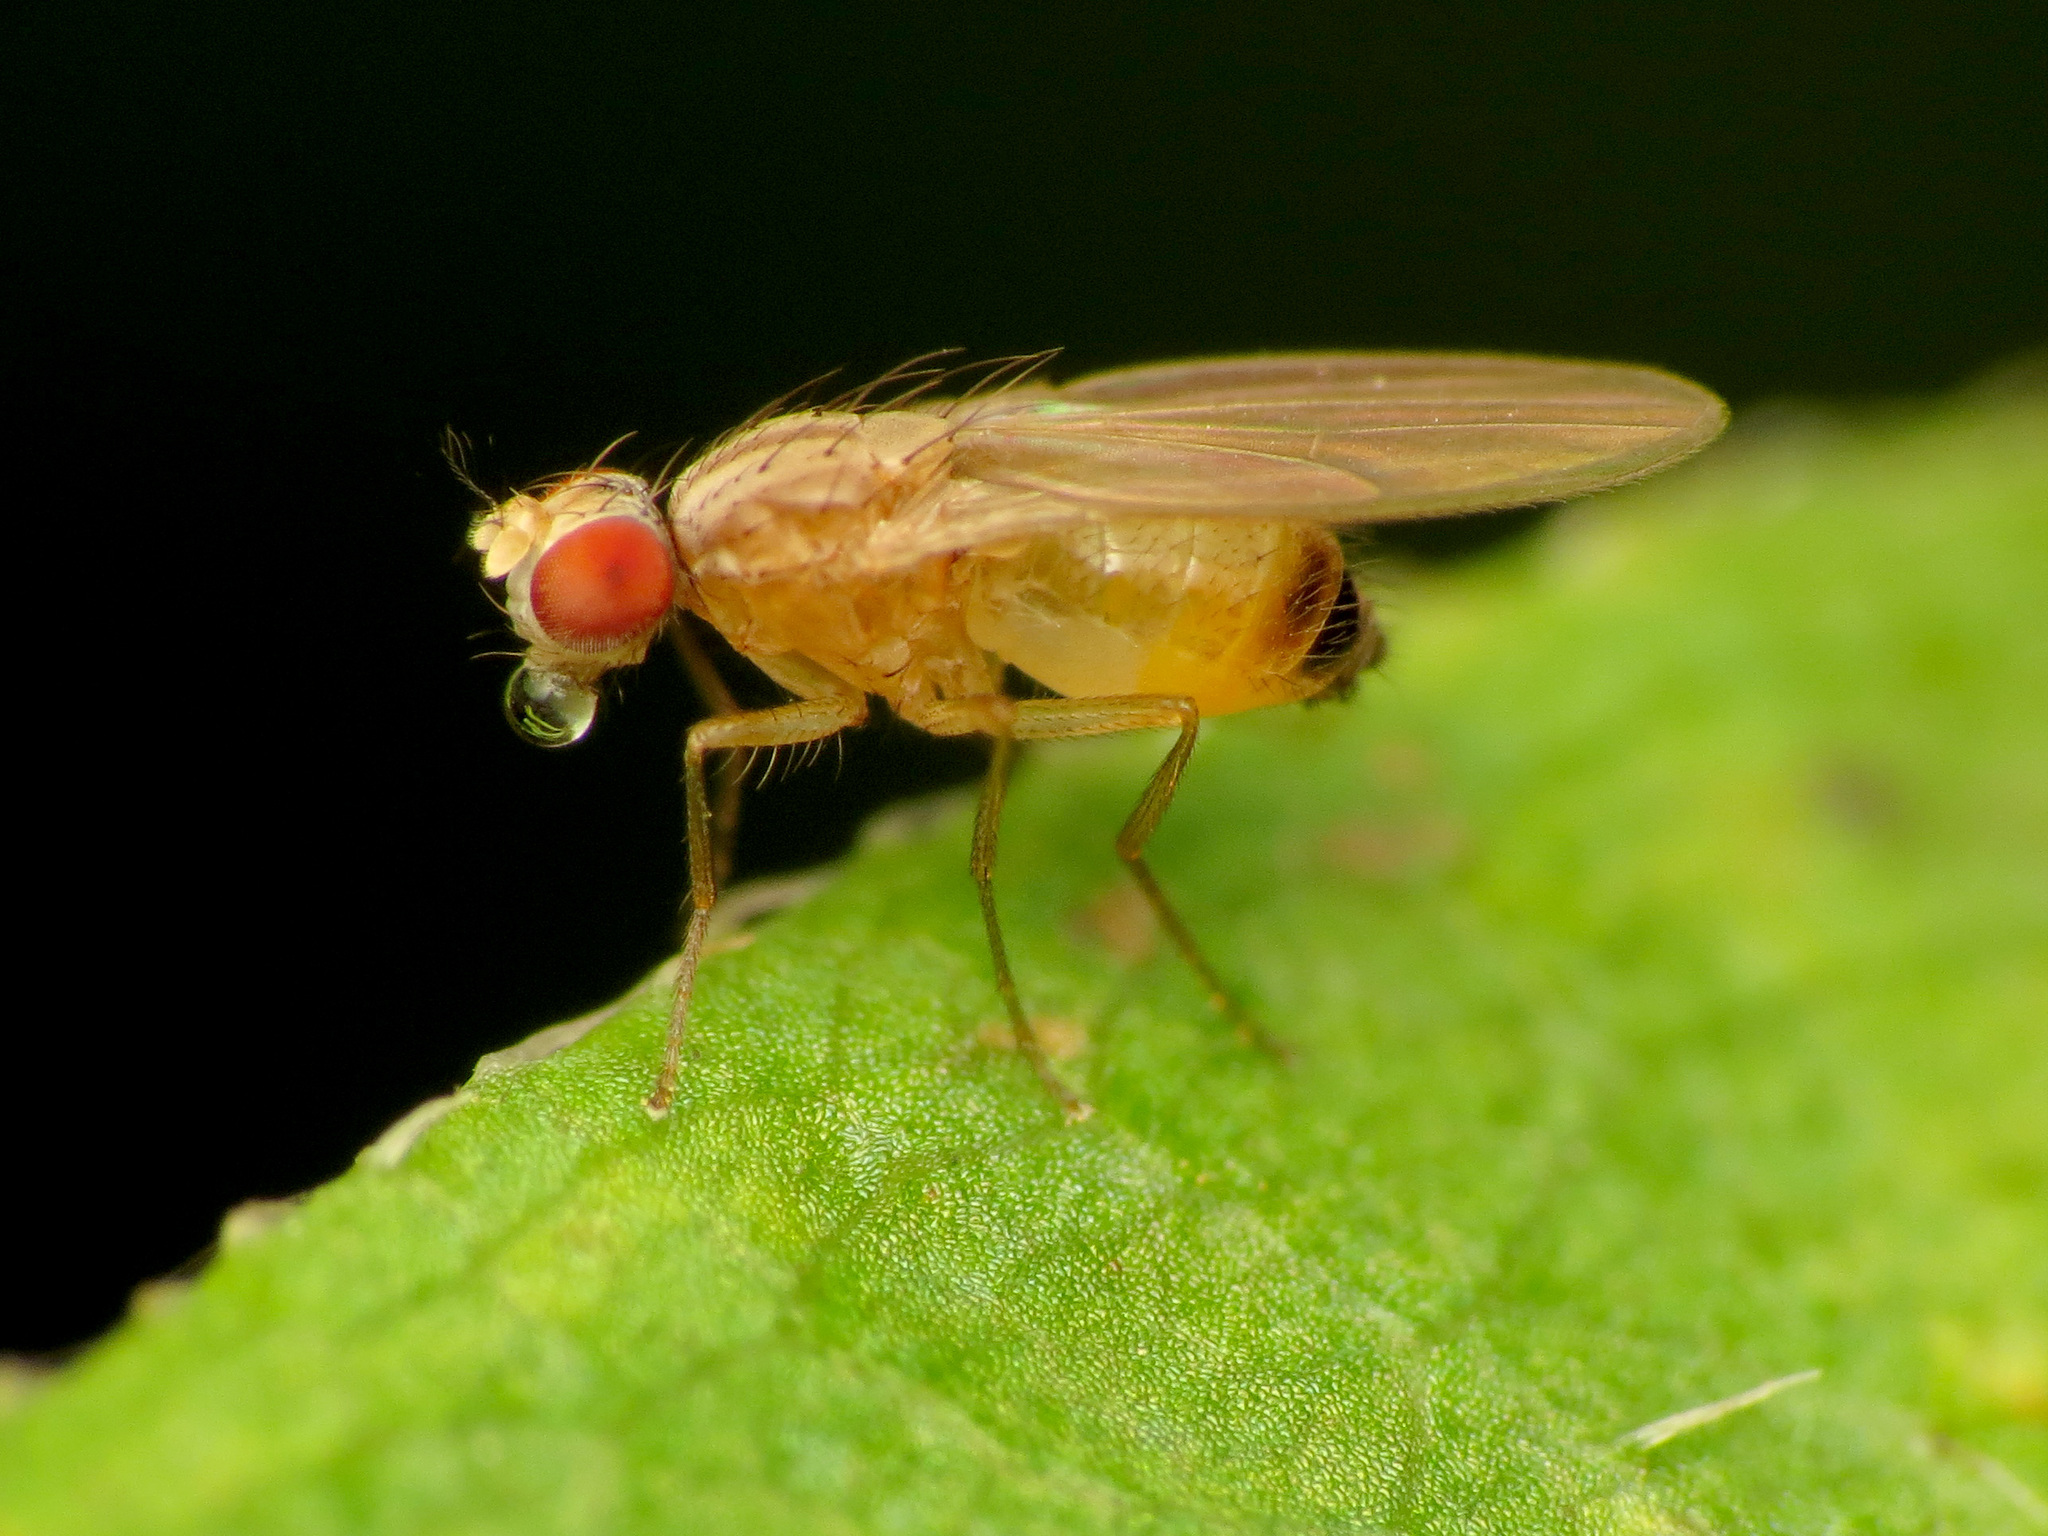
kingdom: Animalia
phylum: Arthropoda
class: Insecta
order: Diptera
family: Drosophilidae
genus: Scaptomyza
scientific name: Scaptomyza pallida
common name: Pomace fly
